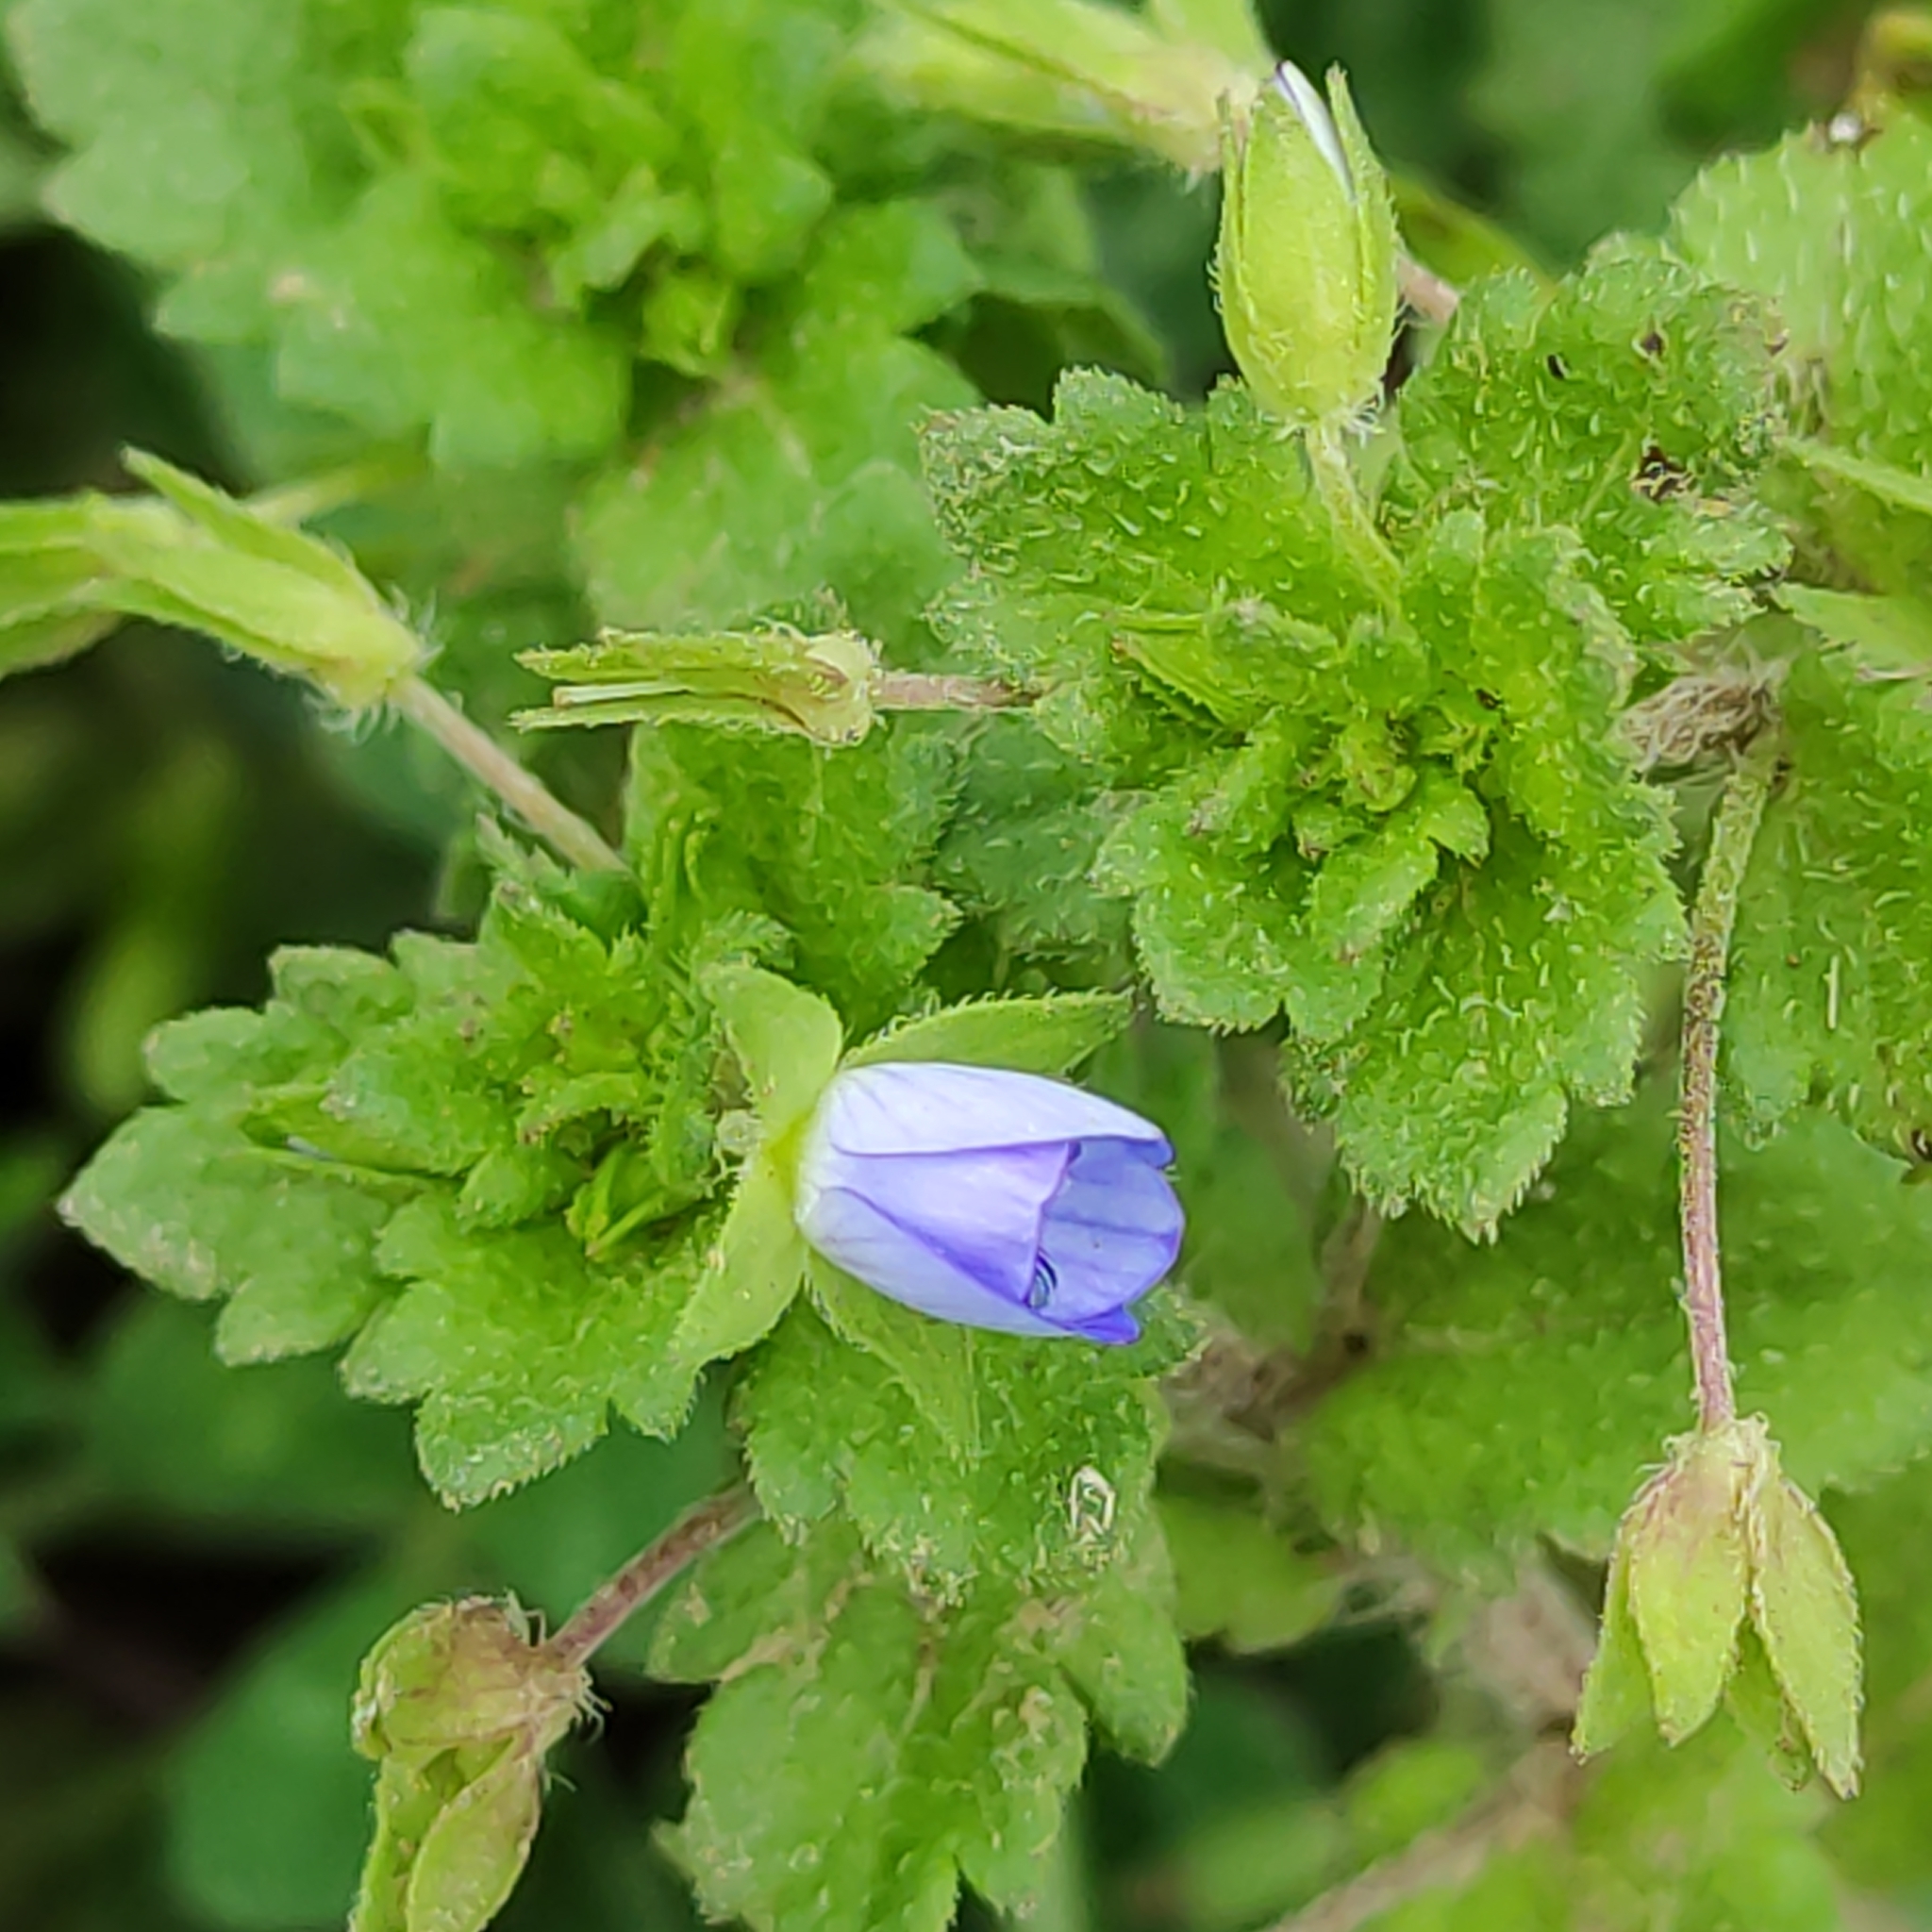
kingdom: Plantae
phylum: Tracheophyta
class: Magnoliopsida
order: Fabales
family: Fabaceae
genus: Trifolium
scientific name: Trifolium repens
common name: White clover
